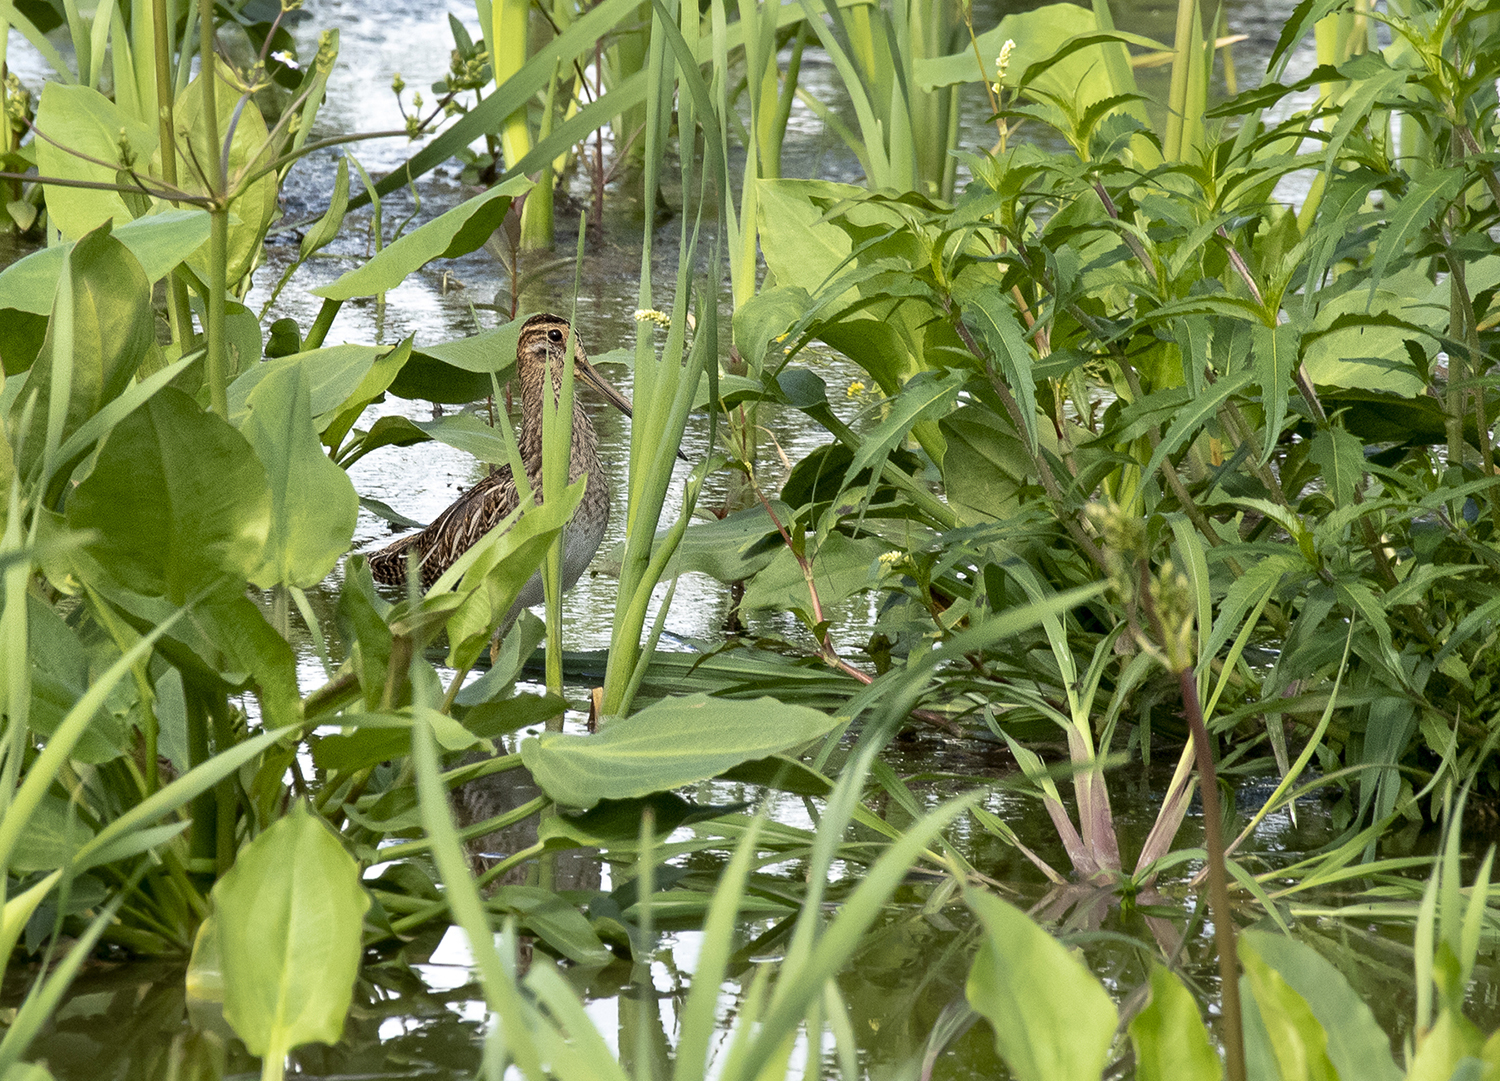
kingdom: Animalia
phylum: Chordata
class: Aves
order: Charadriiformes
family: Scolopacidae
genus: Gallinago
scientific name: Gallinago gallinago
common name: Common snipe
